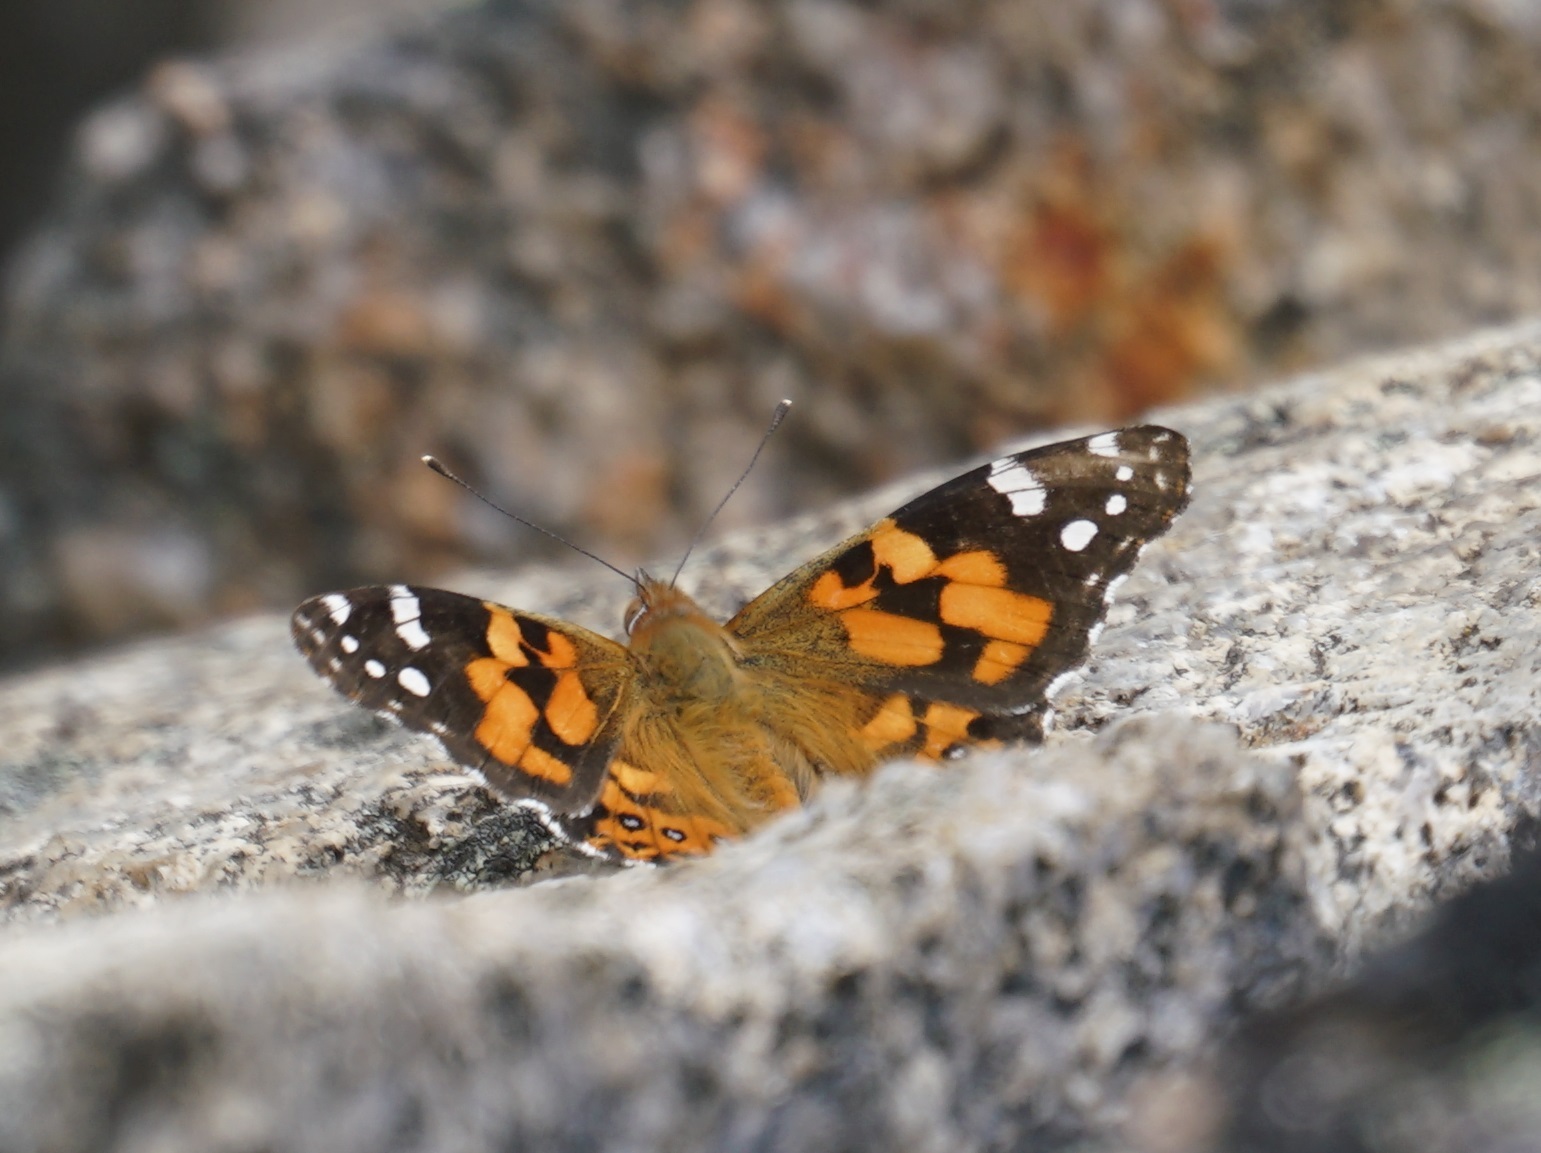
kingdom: Animalia
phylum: Arthropoda
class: Insecta
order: Lepidoptera
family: Nymphalidae
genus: Vanessa
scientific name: Vanessa kershawi
